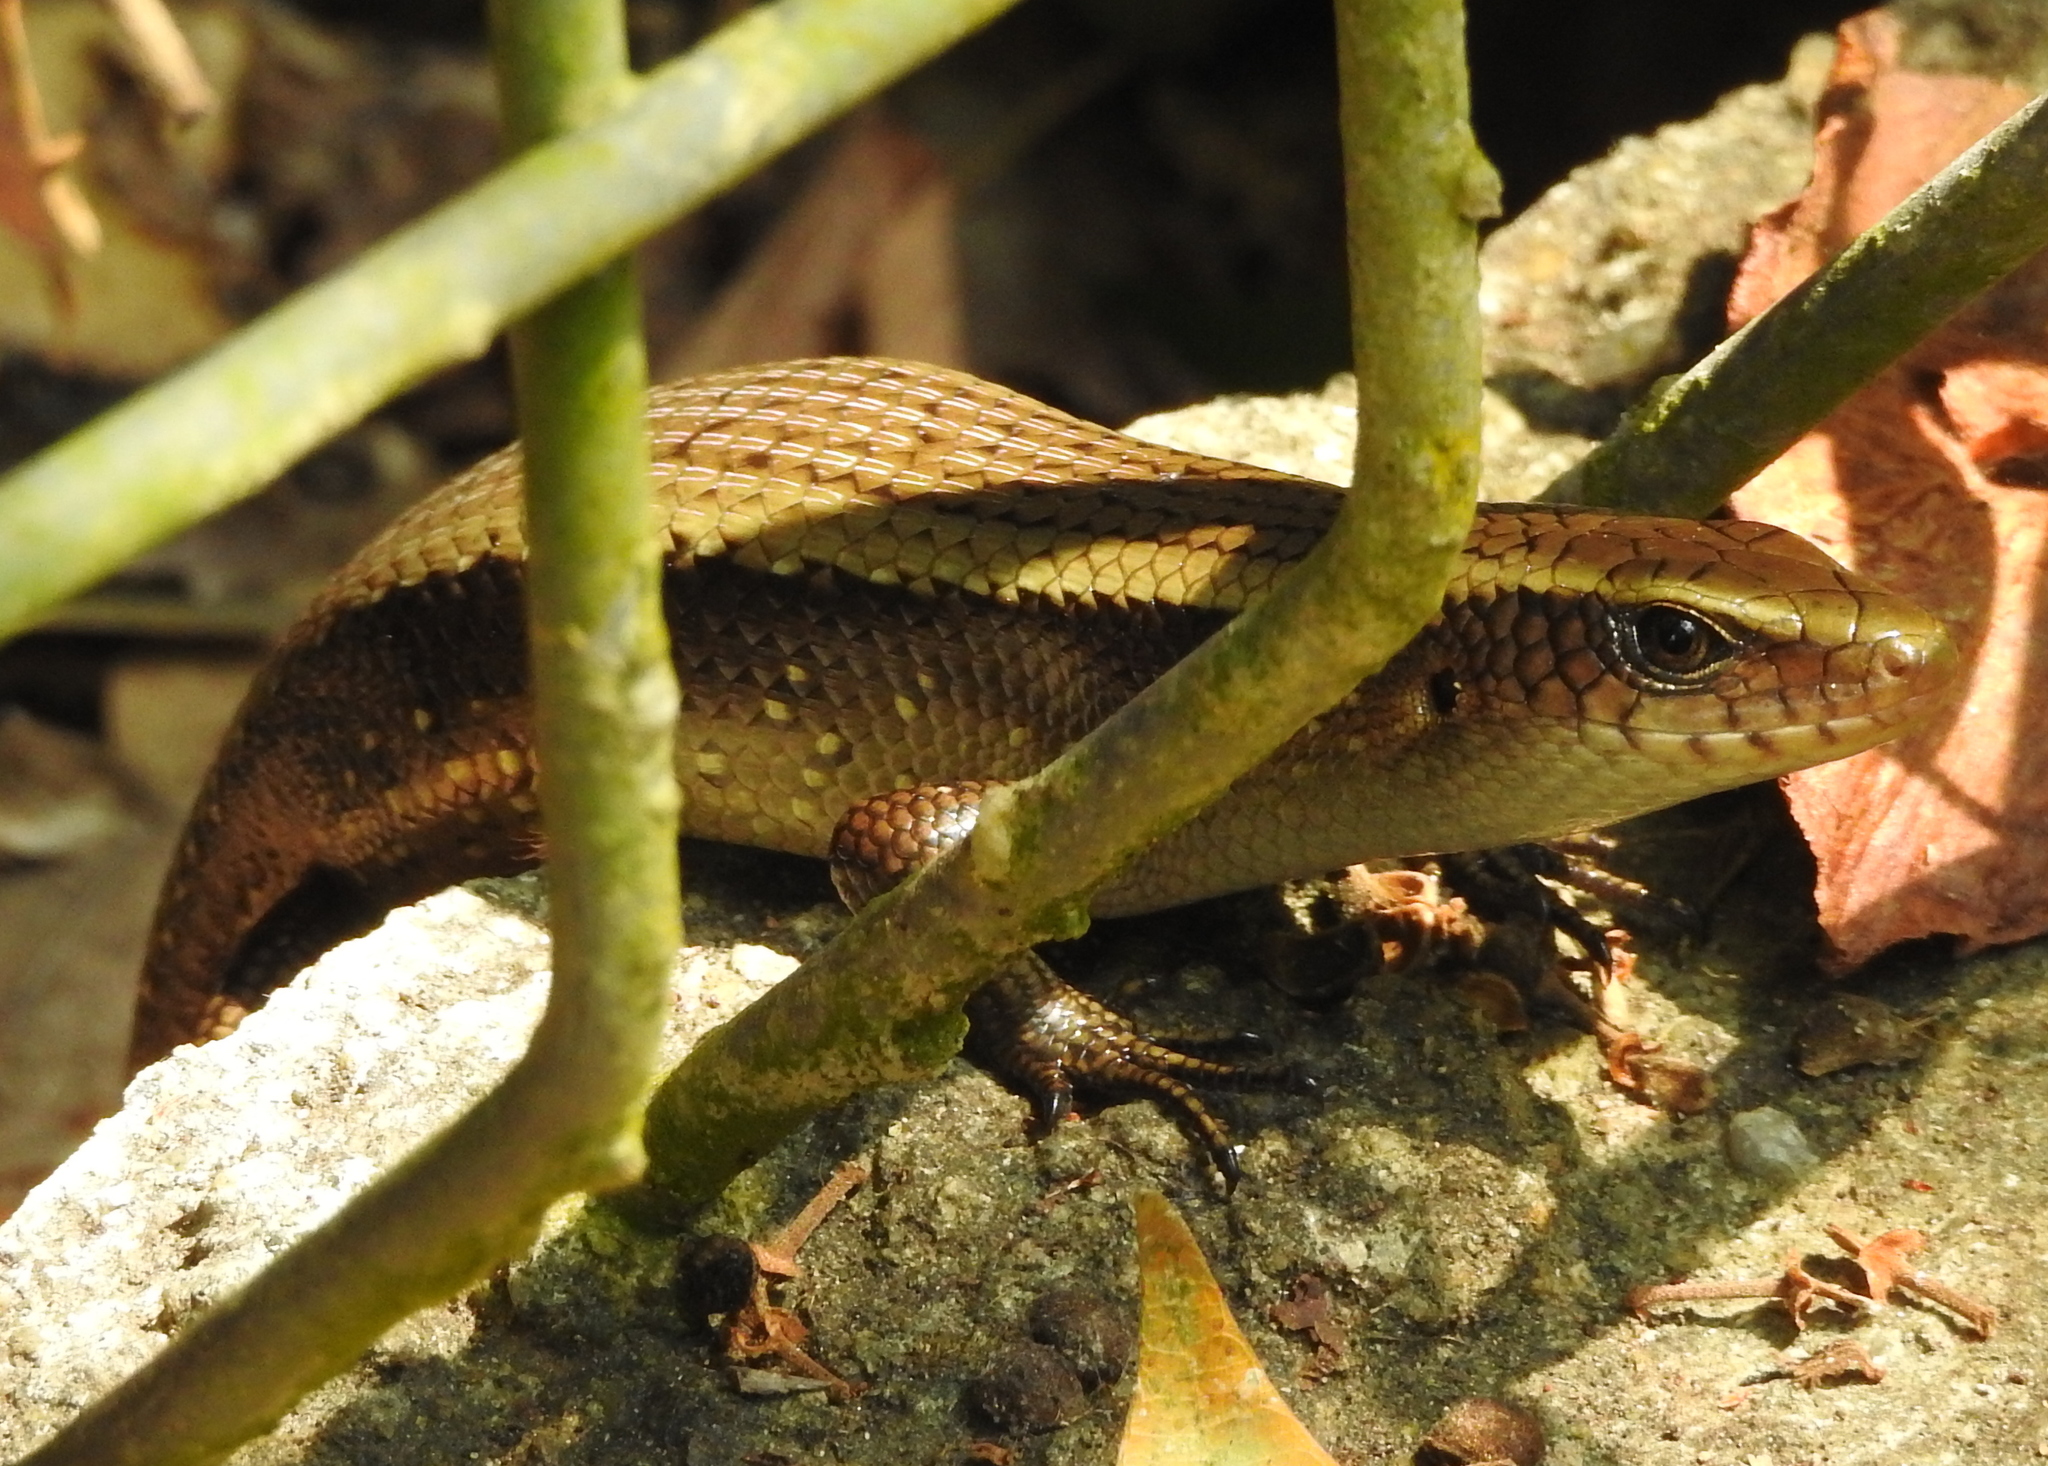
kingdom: Animalia
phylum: Chordata
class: Squamata
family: Scincidae
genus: Eutropis
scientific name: Eutropis multifasciata
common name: Common mabuya
